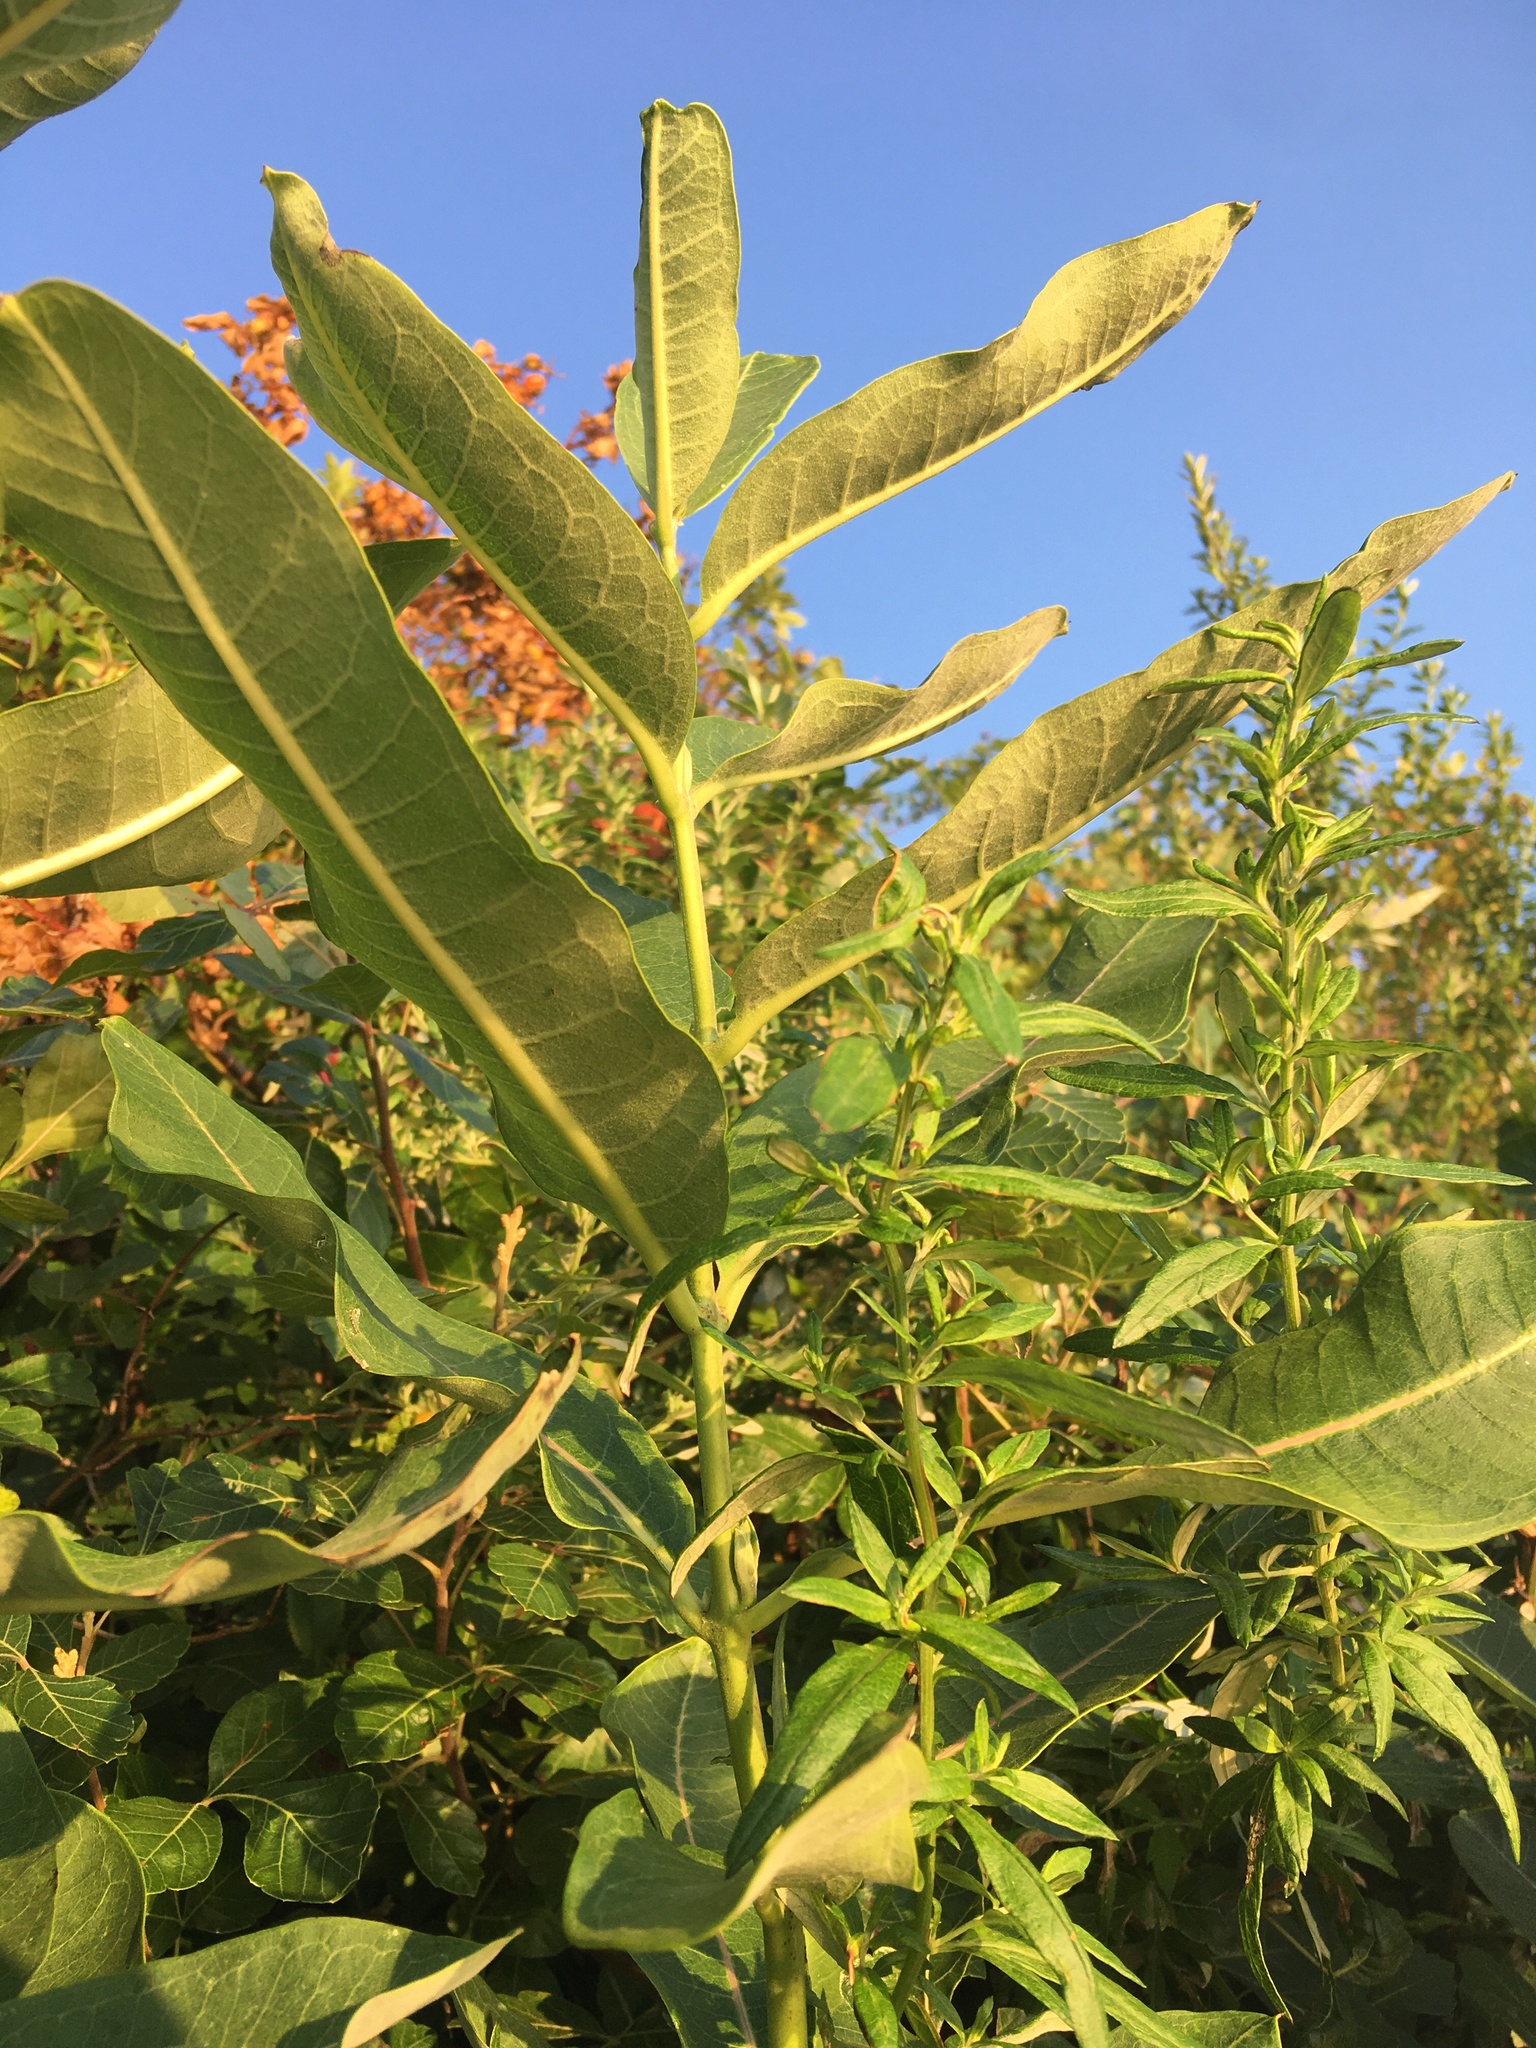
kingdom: Plantae
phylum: Tracheophyta
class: Magnoliopsida
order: Gentianales
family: Apocynaceae
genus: Asclepias
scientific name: Asclepias syriaca
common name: Common milkweed
